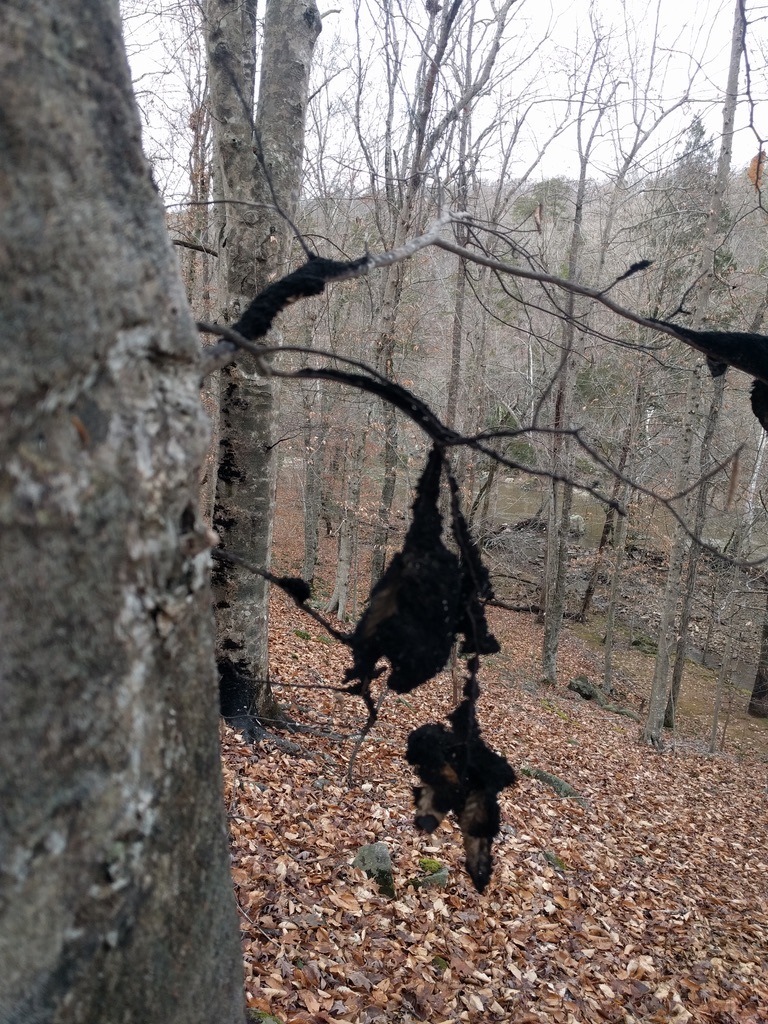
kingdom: Fungi
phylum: Ascomycota
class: Dothideomycetes
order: Capnodiales
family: Capnodiaceae
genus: Scorias
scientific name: Scorias spongiosa
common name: Black sooty mold
